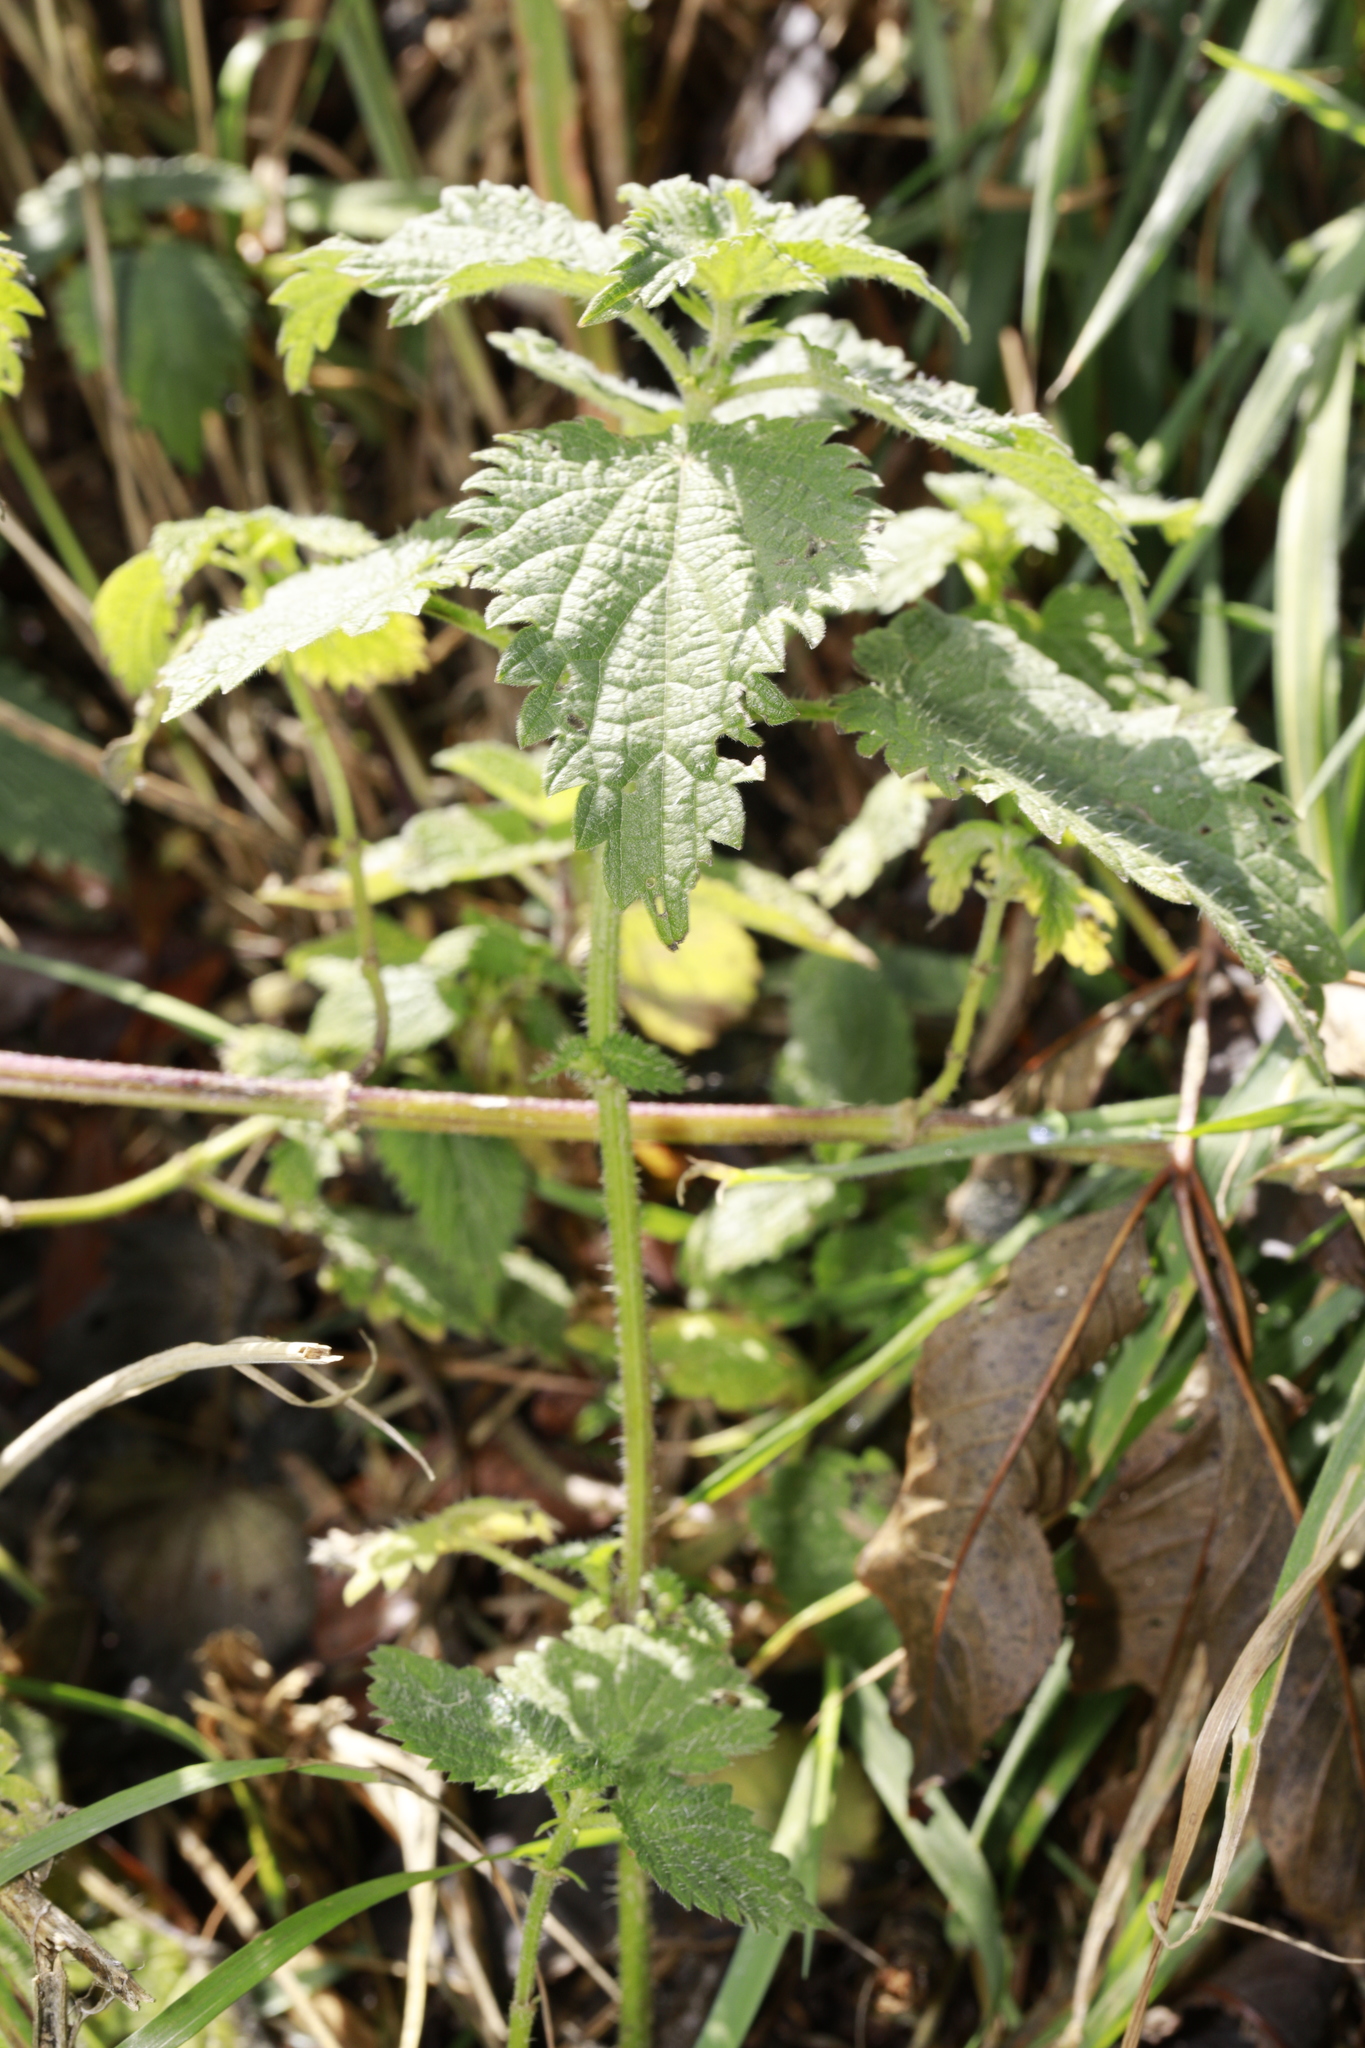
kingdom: Plantae
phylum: Tracheophyta
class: Magnoliopsida
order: Rosales
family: Urticaceae
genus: Urtica
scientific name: Urtica dioica
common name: Common nettle
